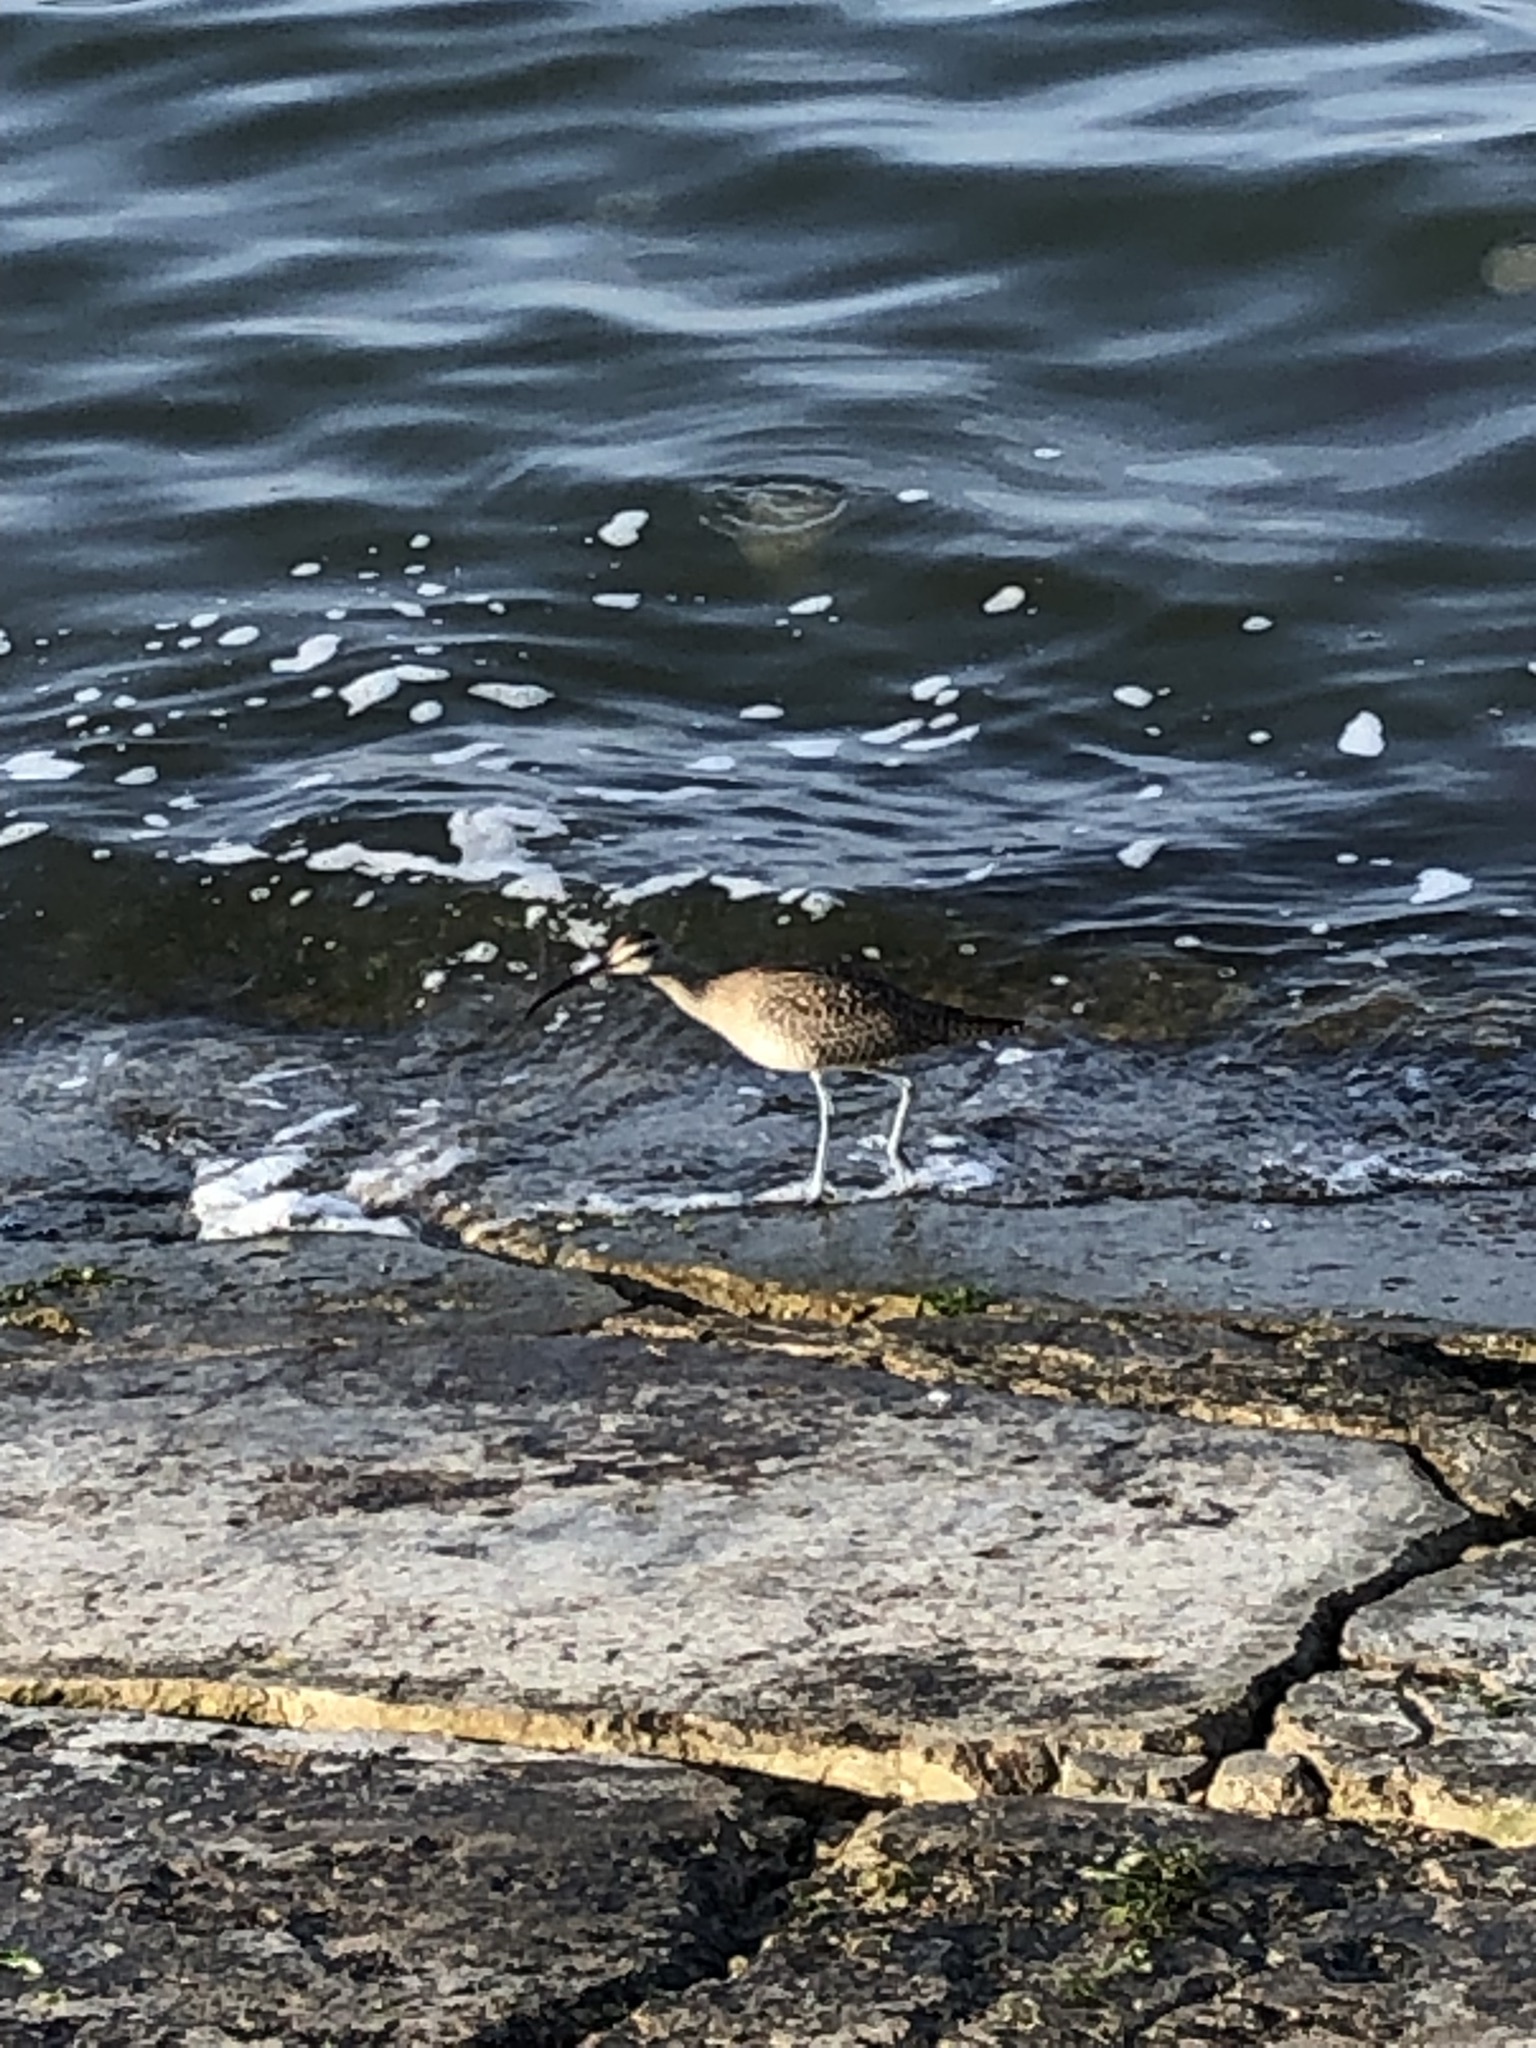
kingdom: Animalia
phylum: Chordata
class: Aves
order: Charadriiformes
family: Scolopacidae
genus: Numenius
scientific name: Numenius phaeopus
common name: Whimbrel
